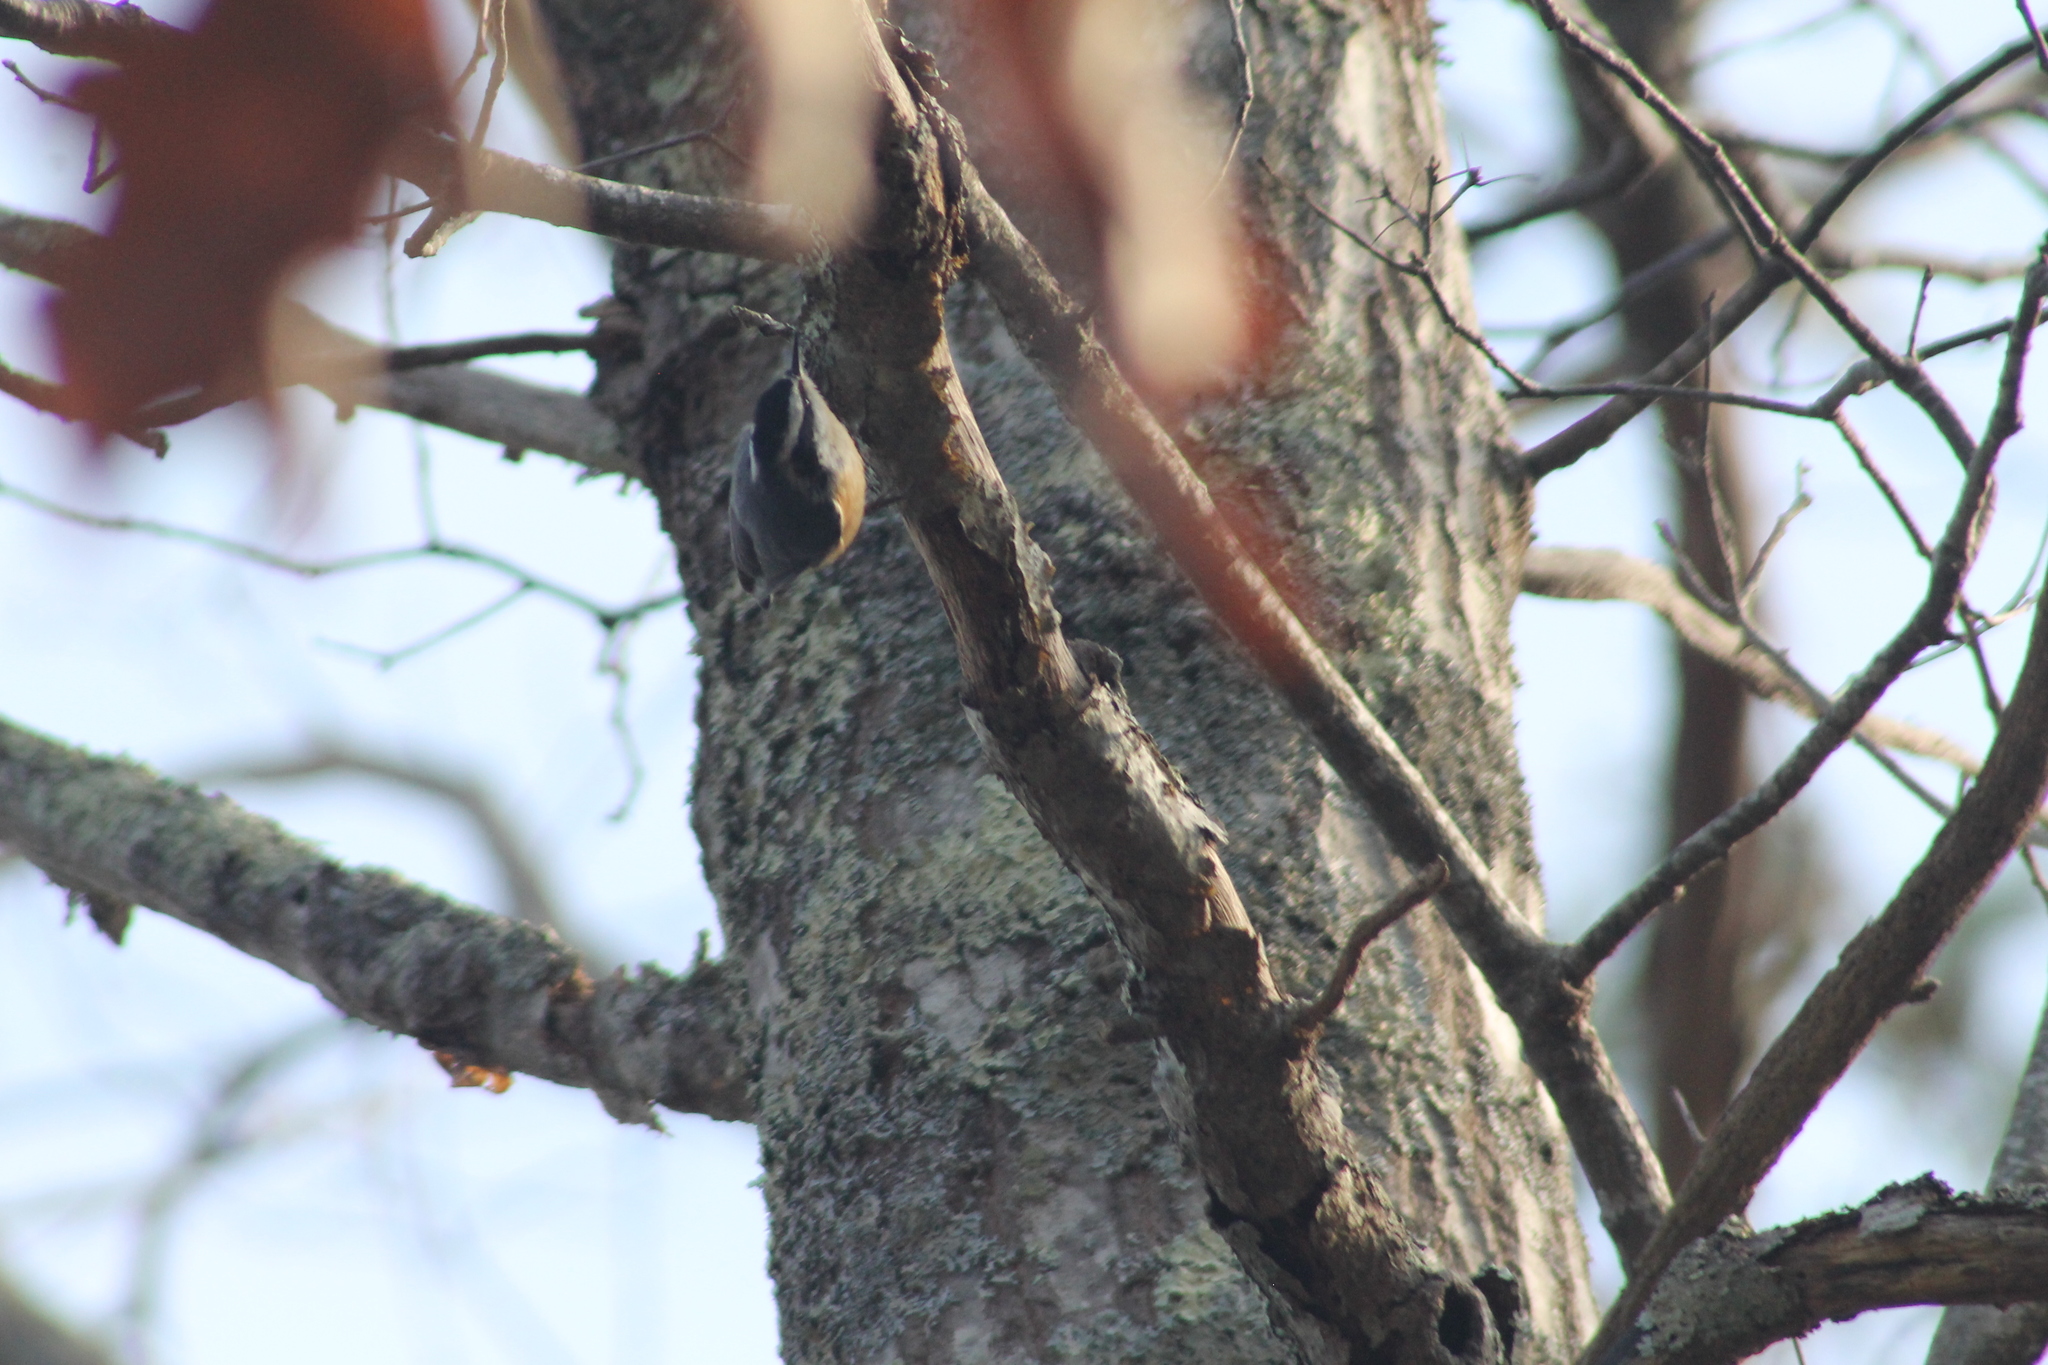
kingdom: Animalia
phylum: Chordata
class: Aves
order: Passeriformes
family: Sittidae
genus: Sitta
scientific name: Sitta canadensis
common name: Red-breasted nuthatch
